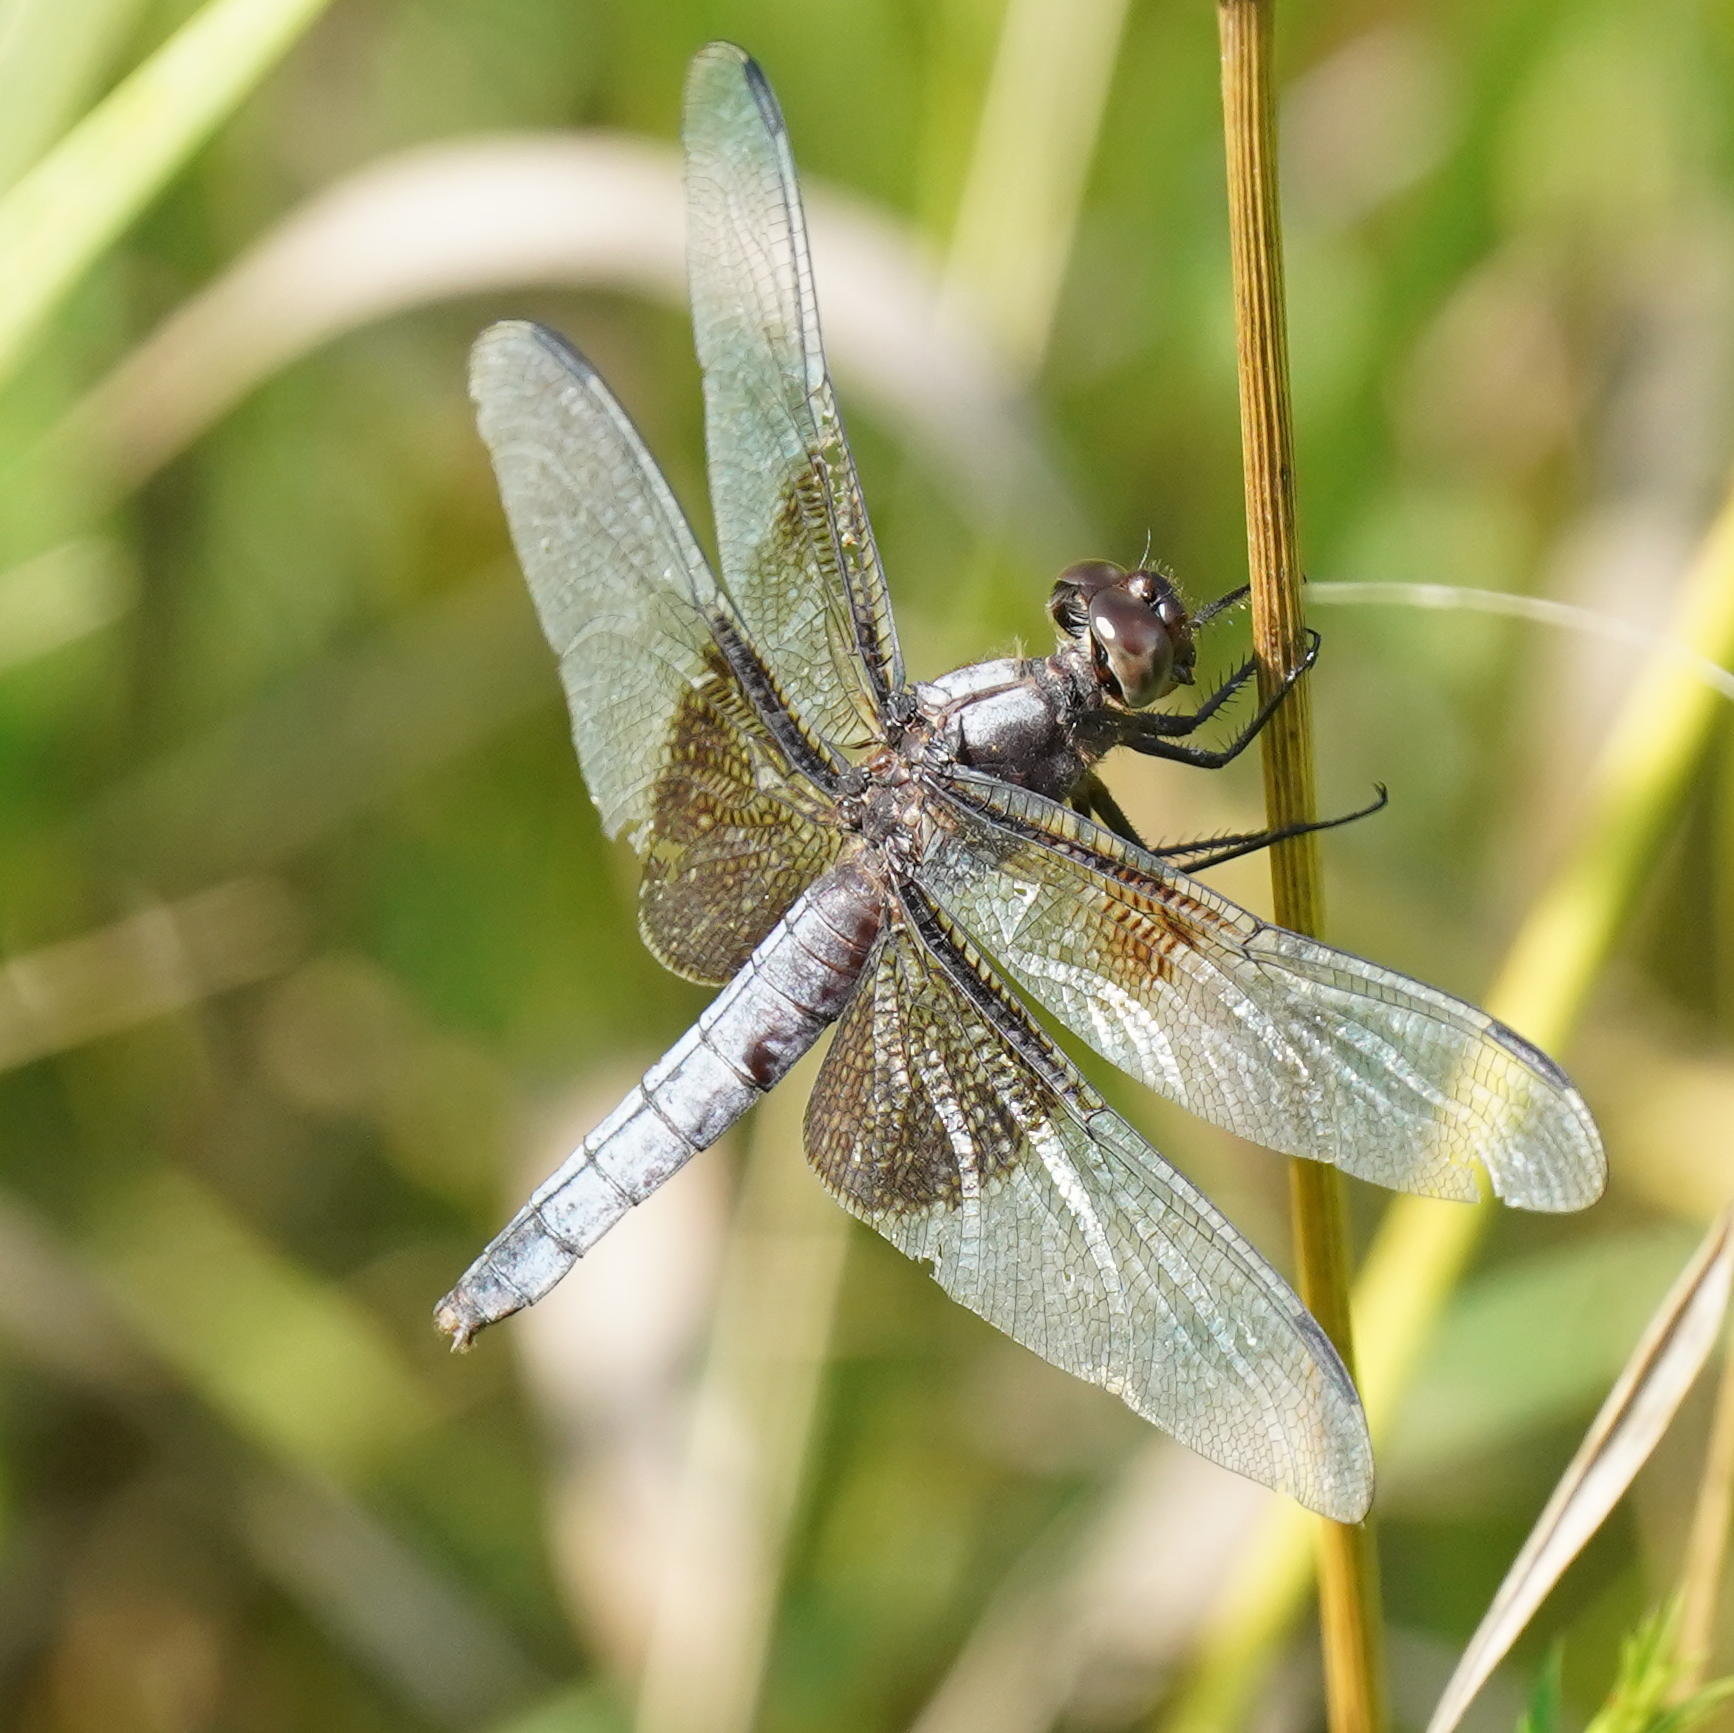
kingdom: Animalia
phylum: Arthropoda
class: Insecta
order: Odonata
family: Libellulidae
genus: Libellula
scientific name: Libellula luctuosa
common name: Widow skimmer
